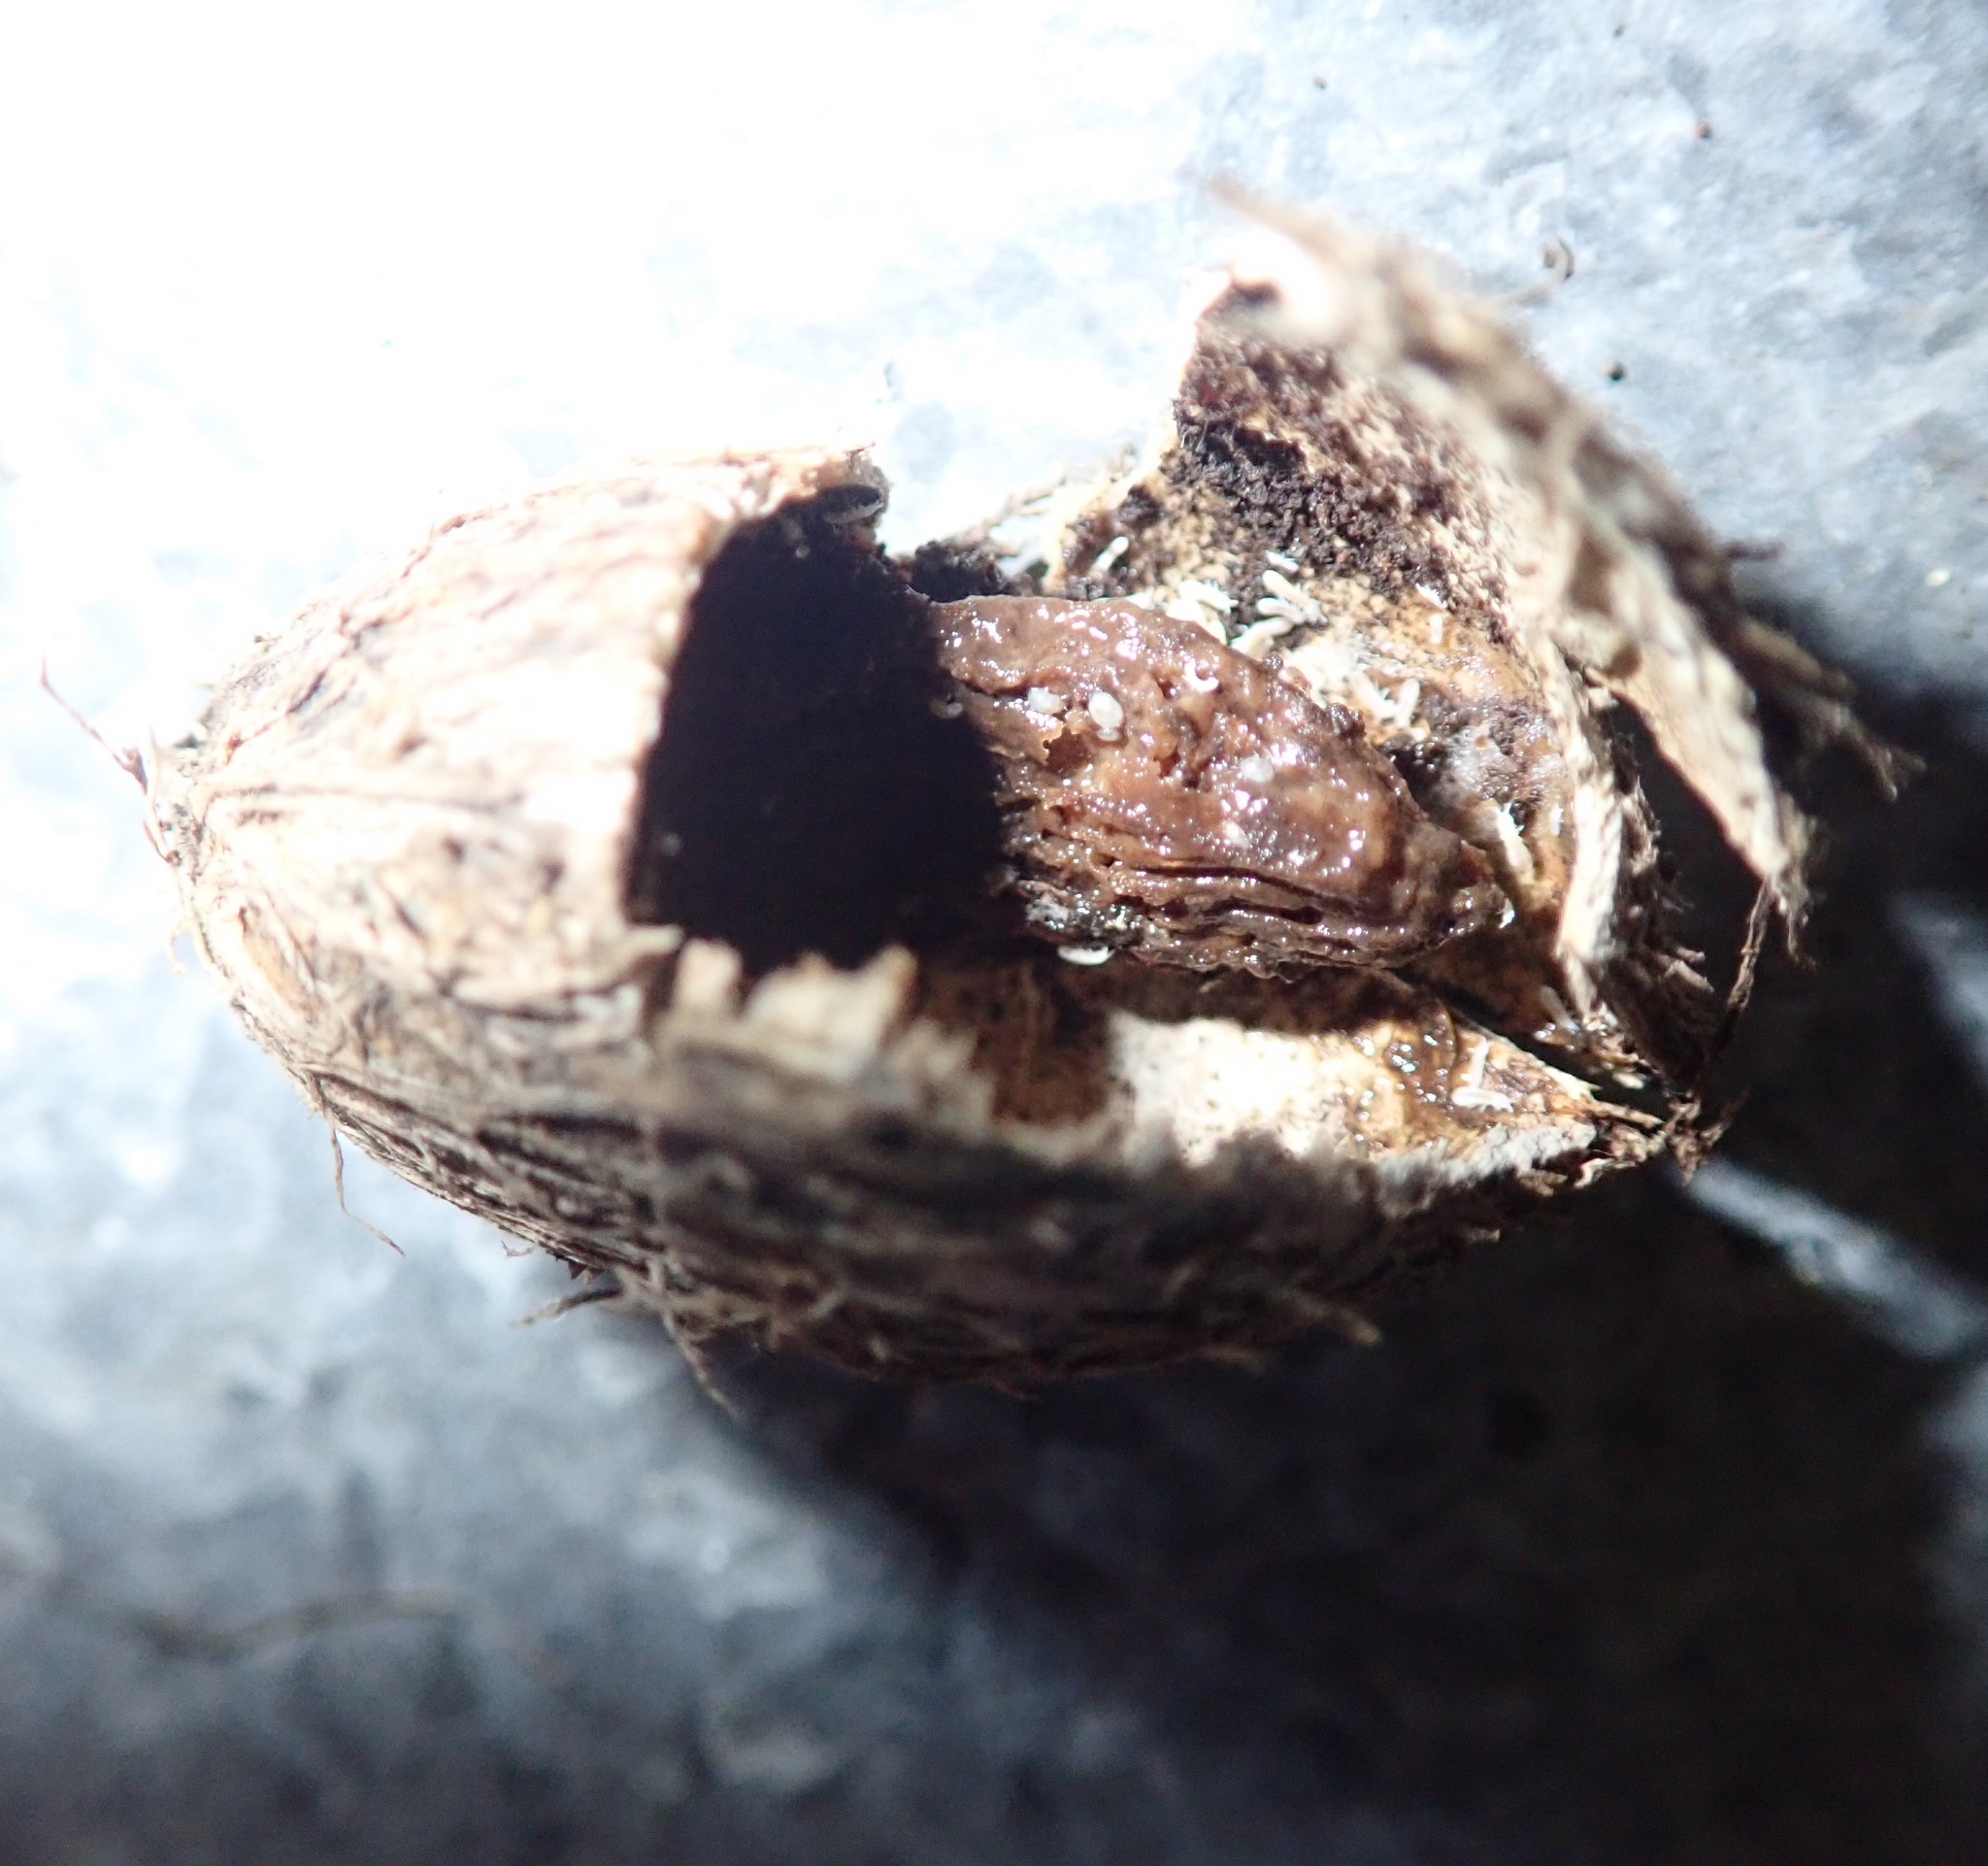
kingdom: Plantae
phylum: Tracheophyta
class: Magnoliopsida
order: Cucurbitales
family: Corynocarpaceae
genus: Corynocarpus
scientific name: Corynocarpus laevigatus
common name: New zealand laurel
